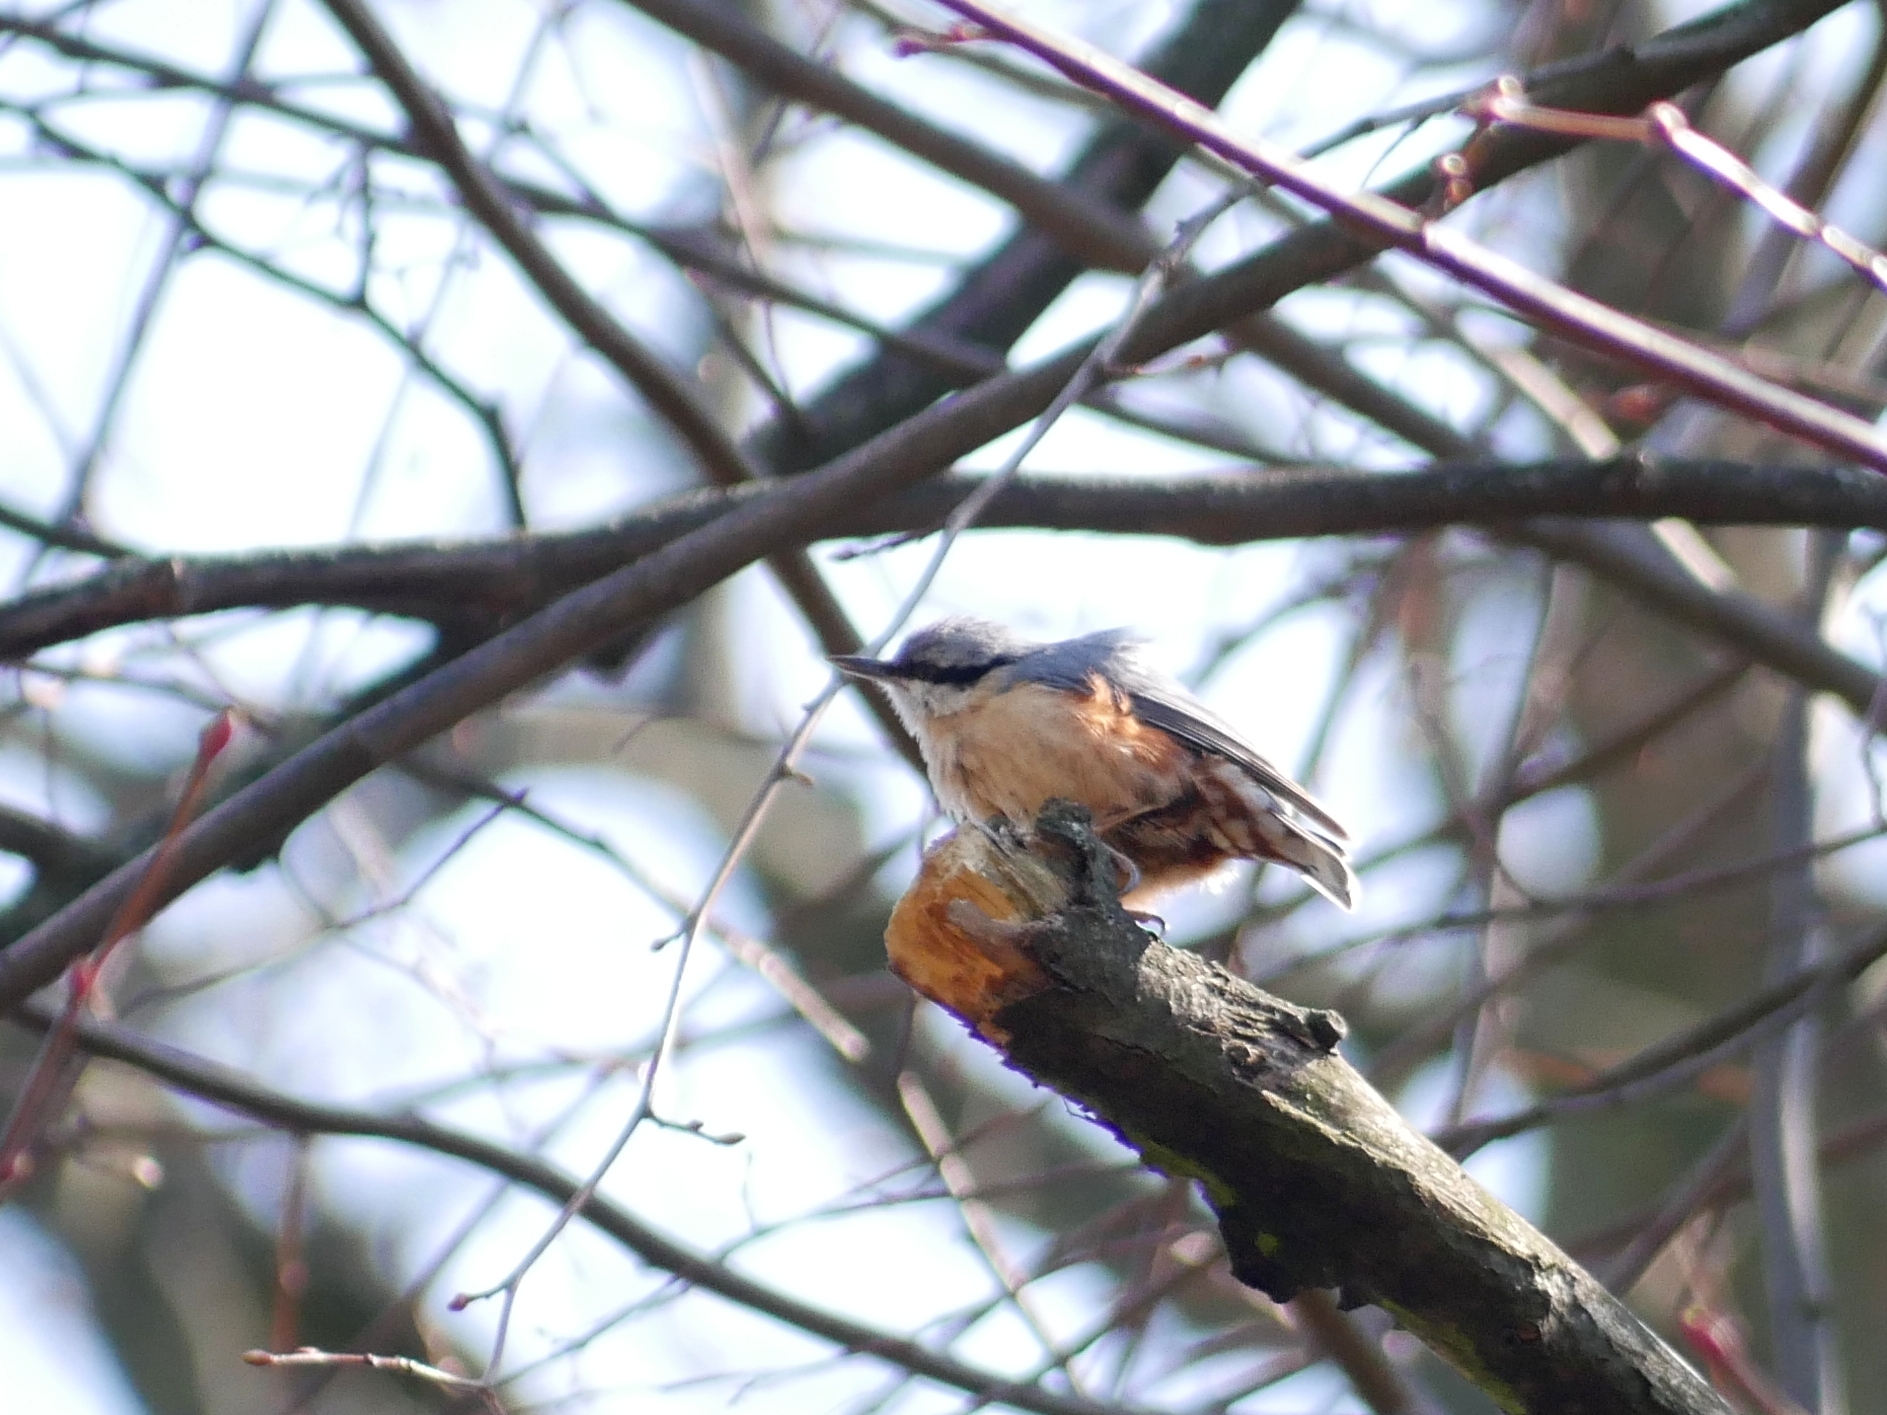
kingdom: Animalia
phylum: Chordata
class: Aves
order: Passeriformes
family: Sittidae
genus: Sitta
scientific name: Sitta europaea
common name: Eurasian nuthatch
